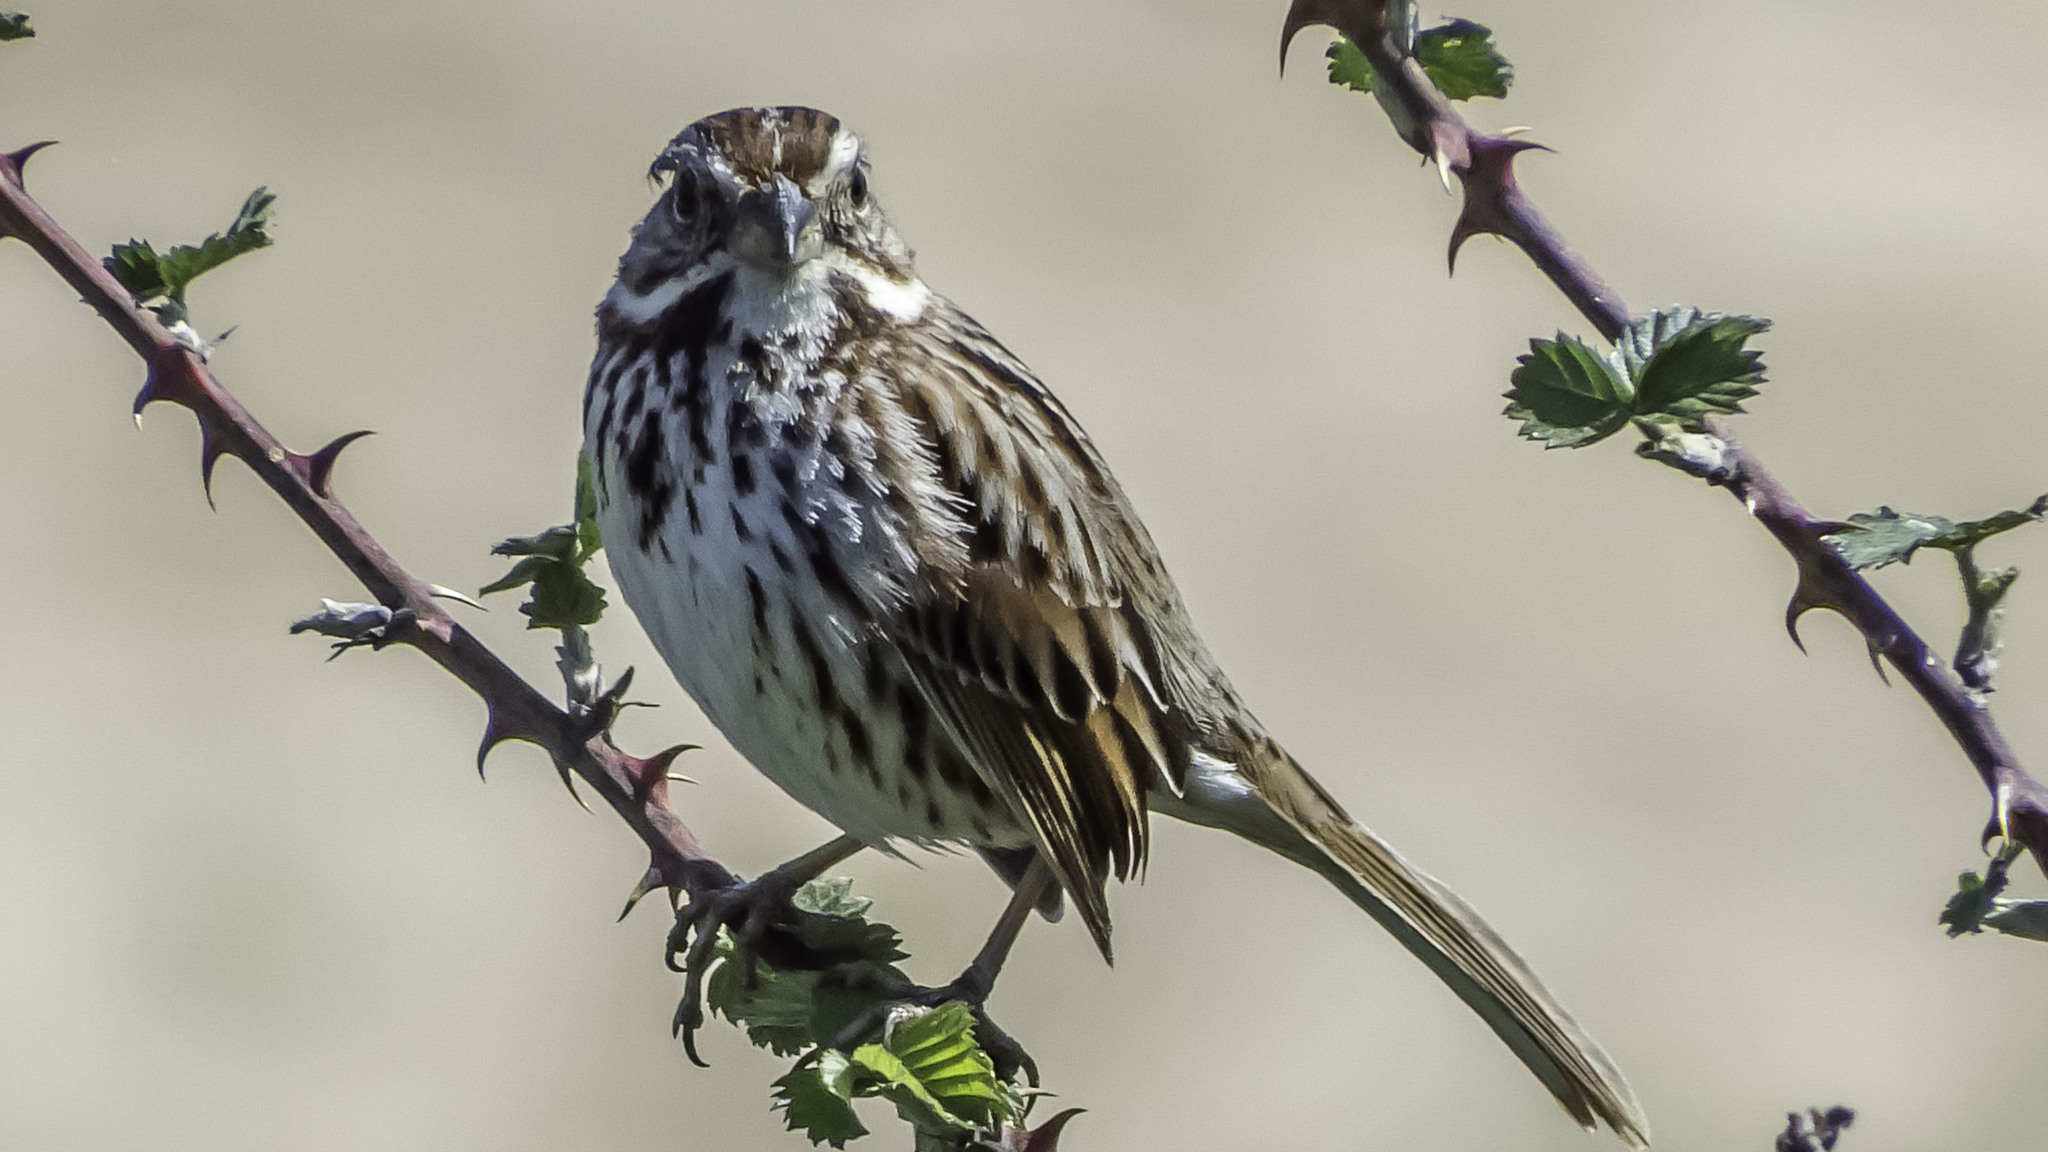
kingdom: Animalia
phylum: Chordata
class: Aves
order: Passeriformes
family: Passerellidae
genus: Melospiza
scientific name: Melospiza melodia
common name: Song sparrow
